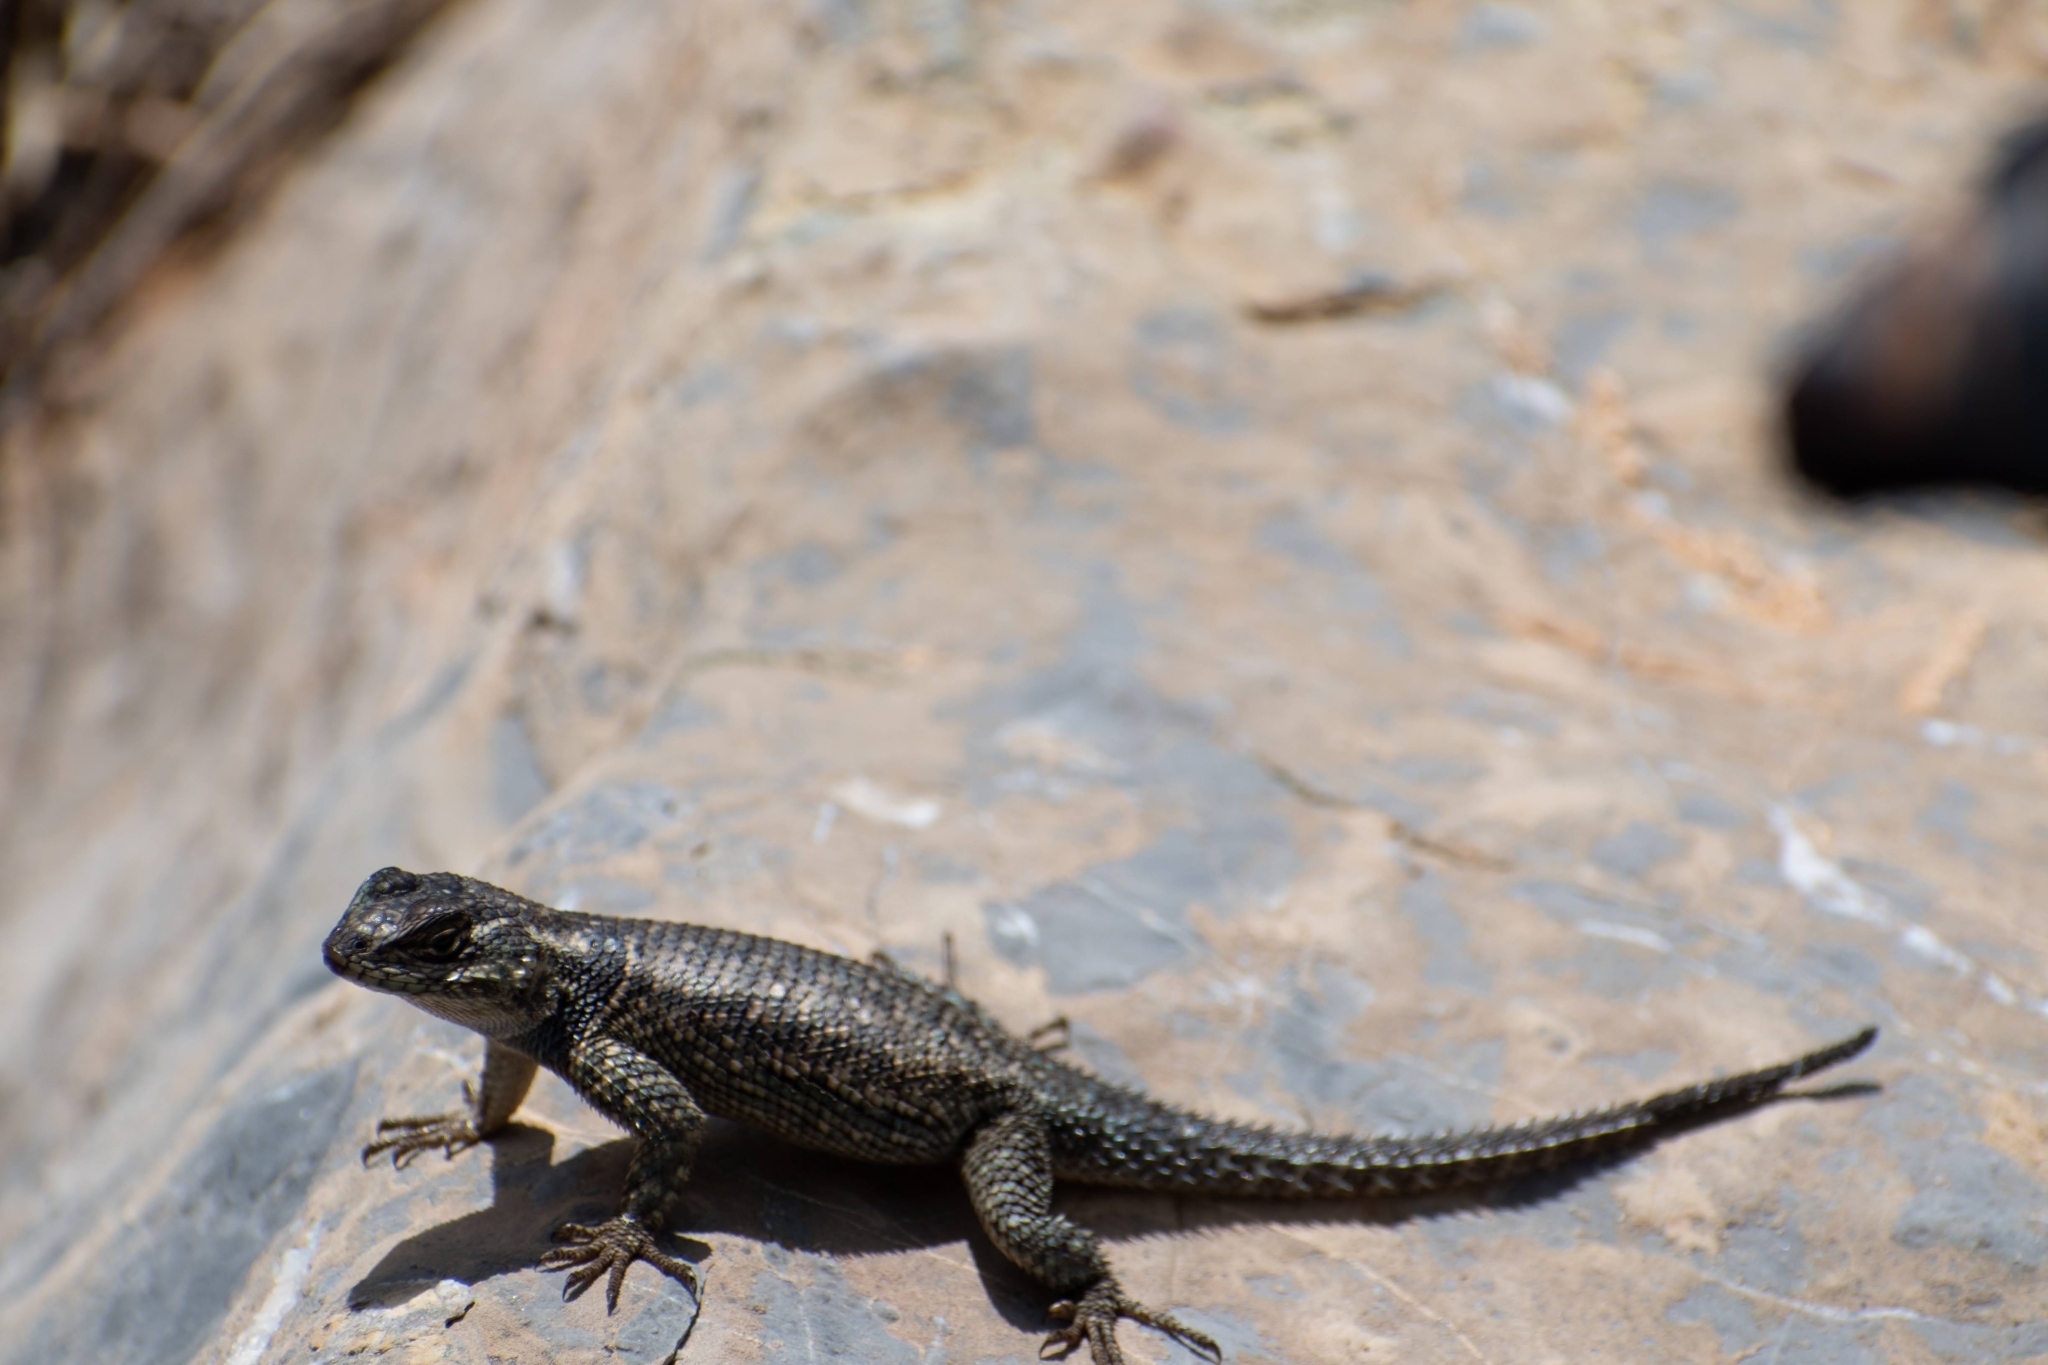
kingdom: Animalia
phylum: Chordata
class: Squamata
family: Phrynosomatidae
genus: Sceloporus
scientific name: Sceloporus jarrovii
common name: Yarrow's spiny lizard
